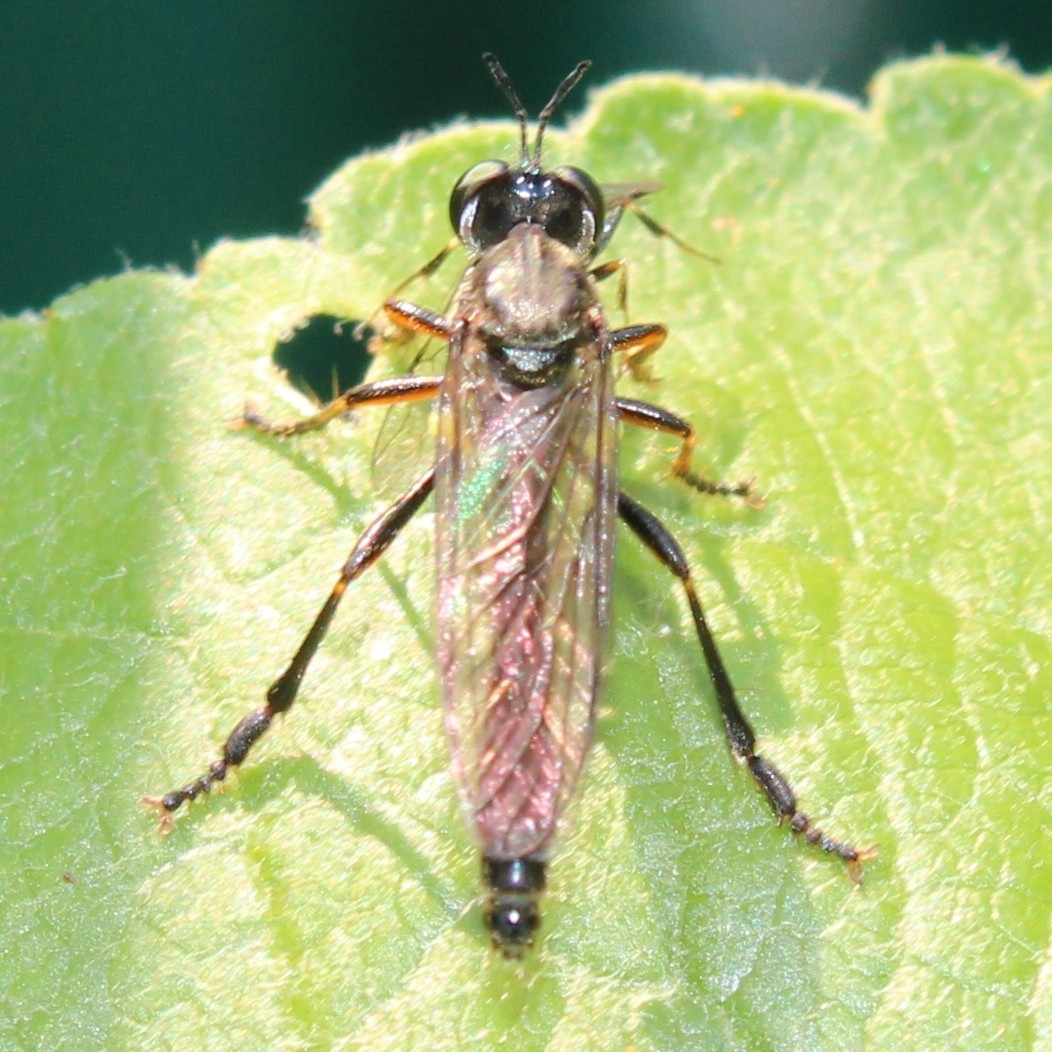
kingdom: Animalia
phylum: Arthropoda
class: Insecta
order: Diptera
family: Asilidae
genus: Dioctria
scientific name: Dioctria hyalipennis
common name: Stripe-legged robberfly
